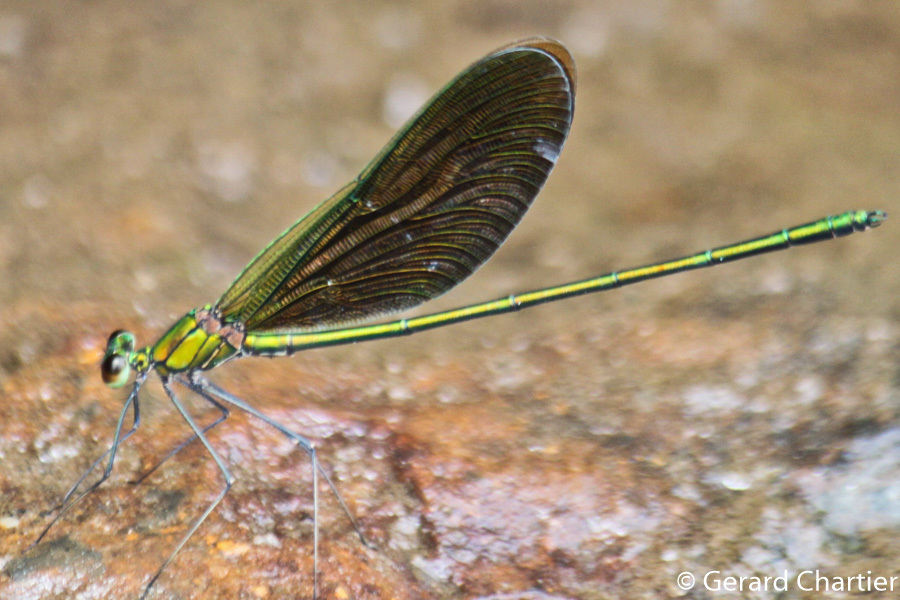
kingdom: Animalia
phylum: Arthropoda
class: Insecta
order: Odonata
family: Calopterygidae
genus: Neurobasis
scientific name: Neurobasis chinensis
